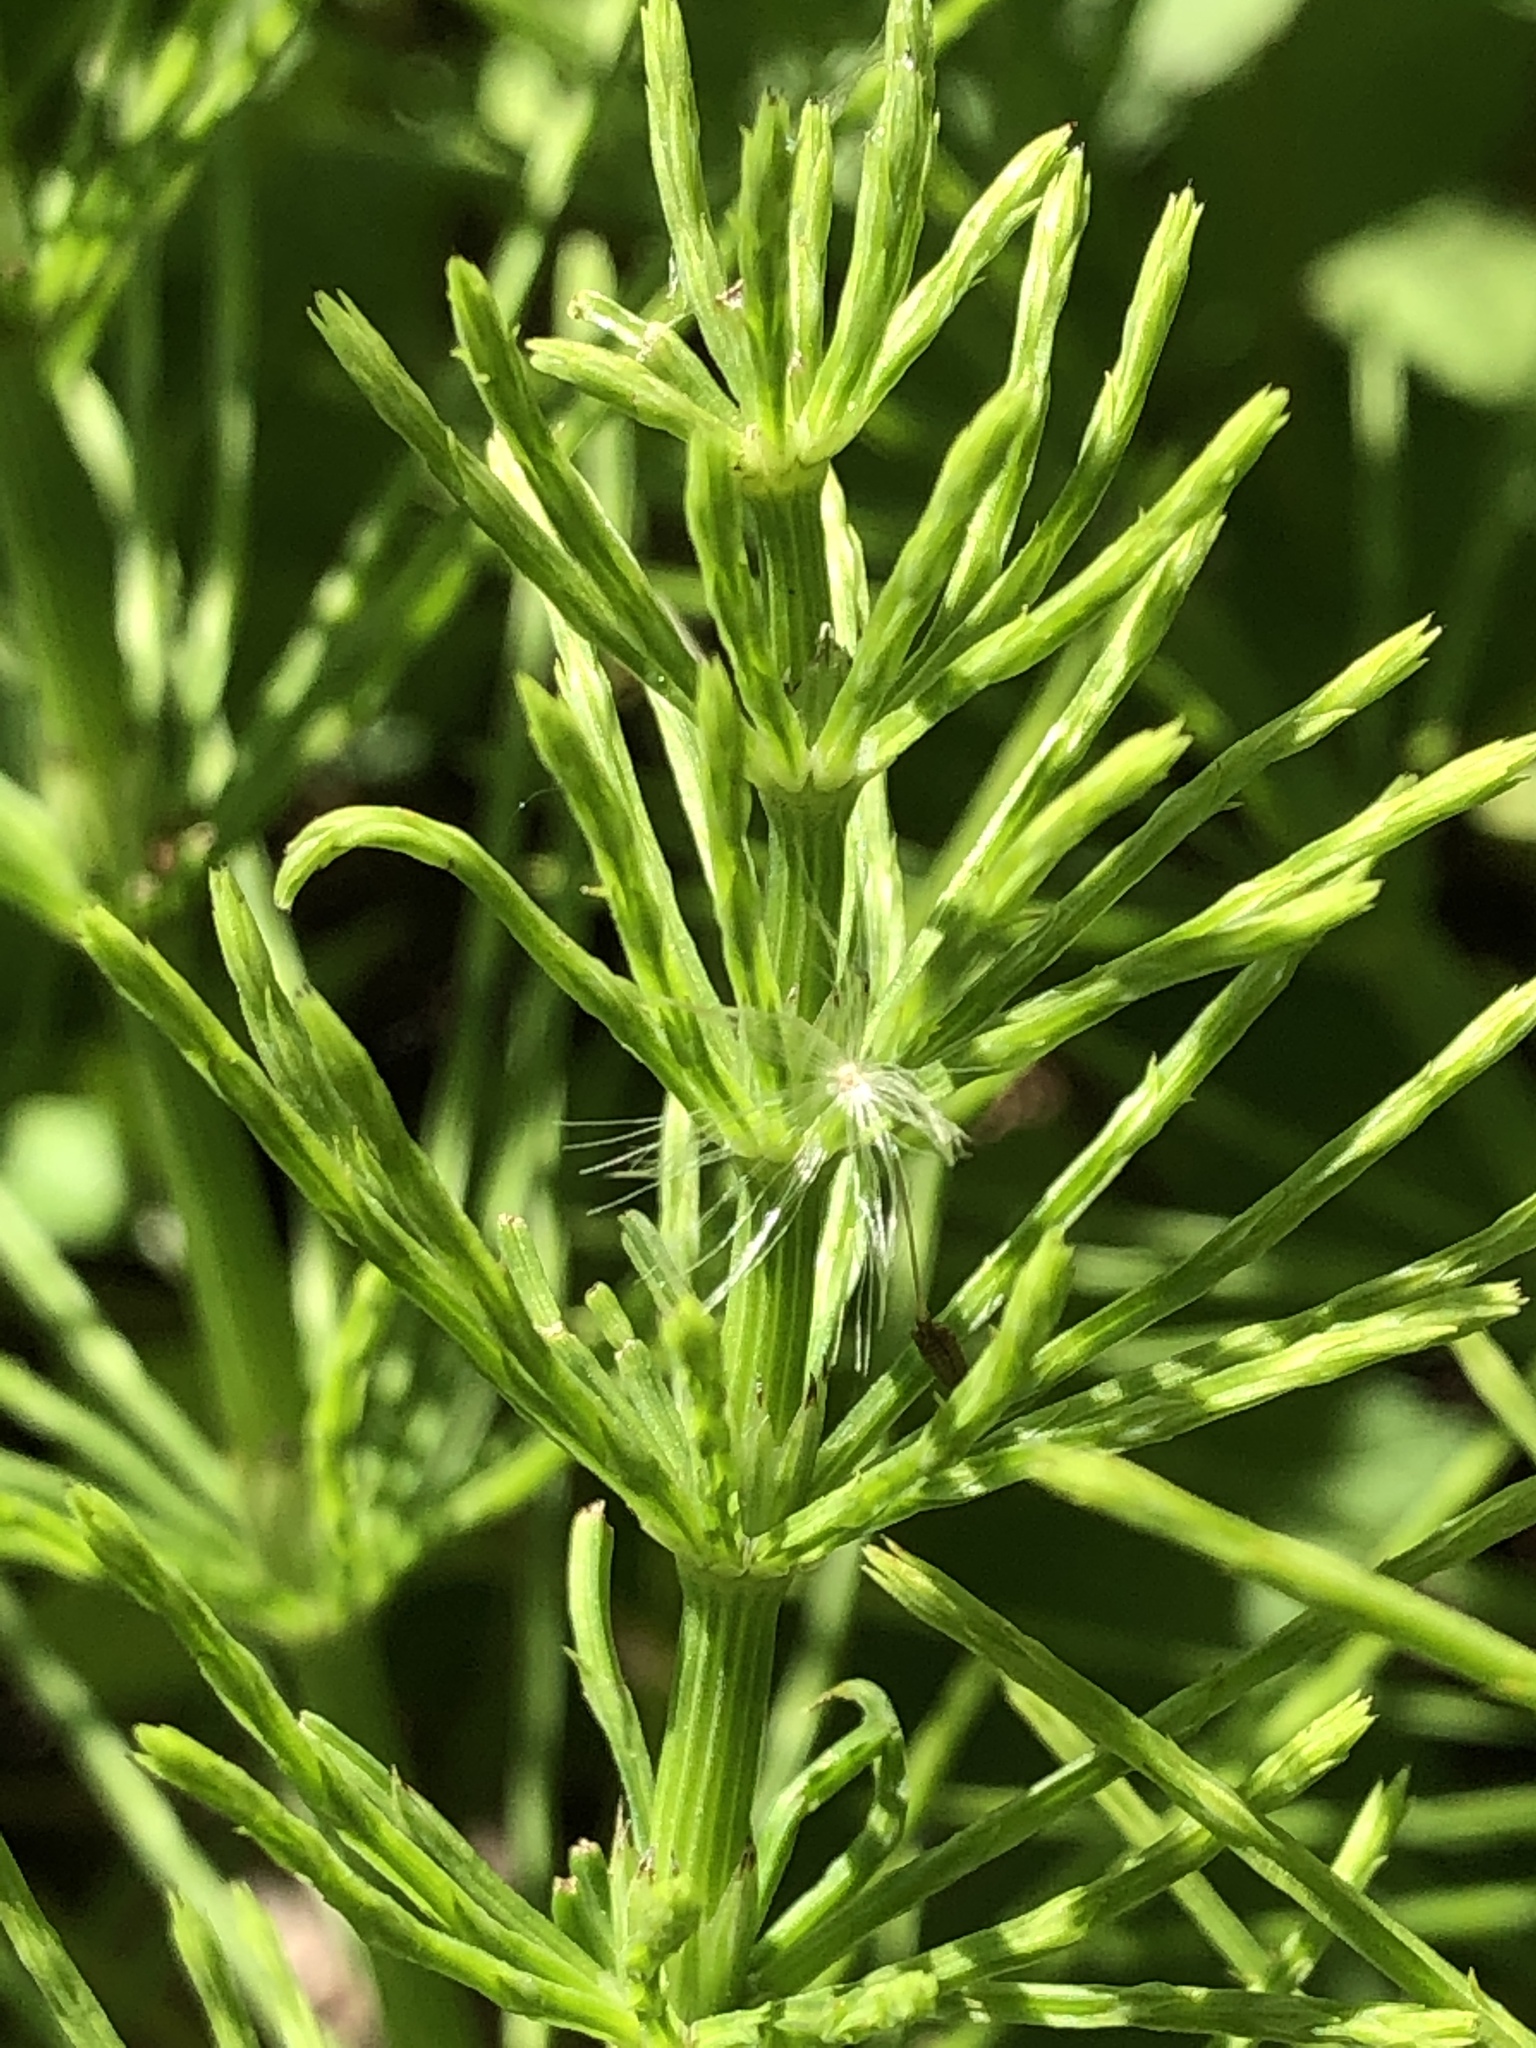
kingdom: Plantae
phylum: Tracheophyta
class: Polypodiopsida
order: Equisetales
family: Equisetaceae
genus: Equisetum
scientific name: Equisetum arvense
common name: Field horsetail
